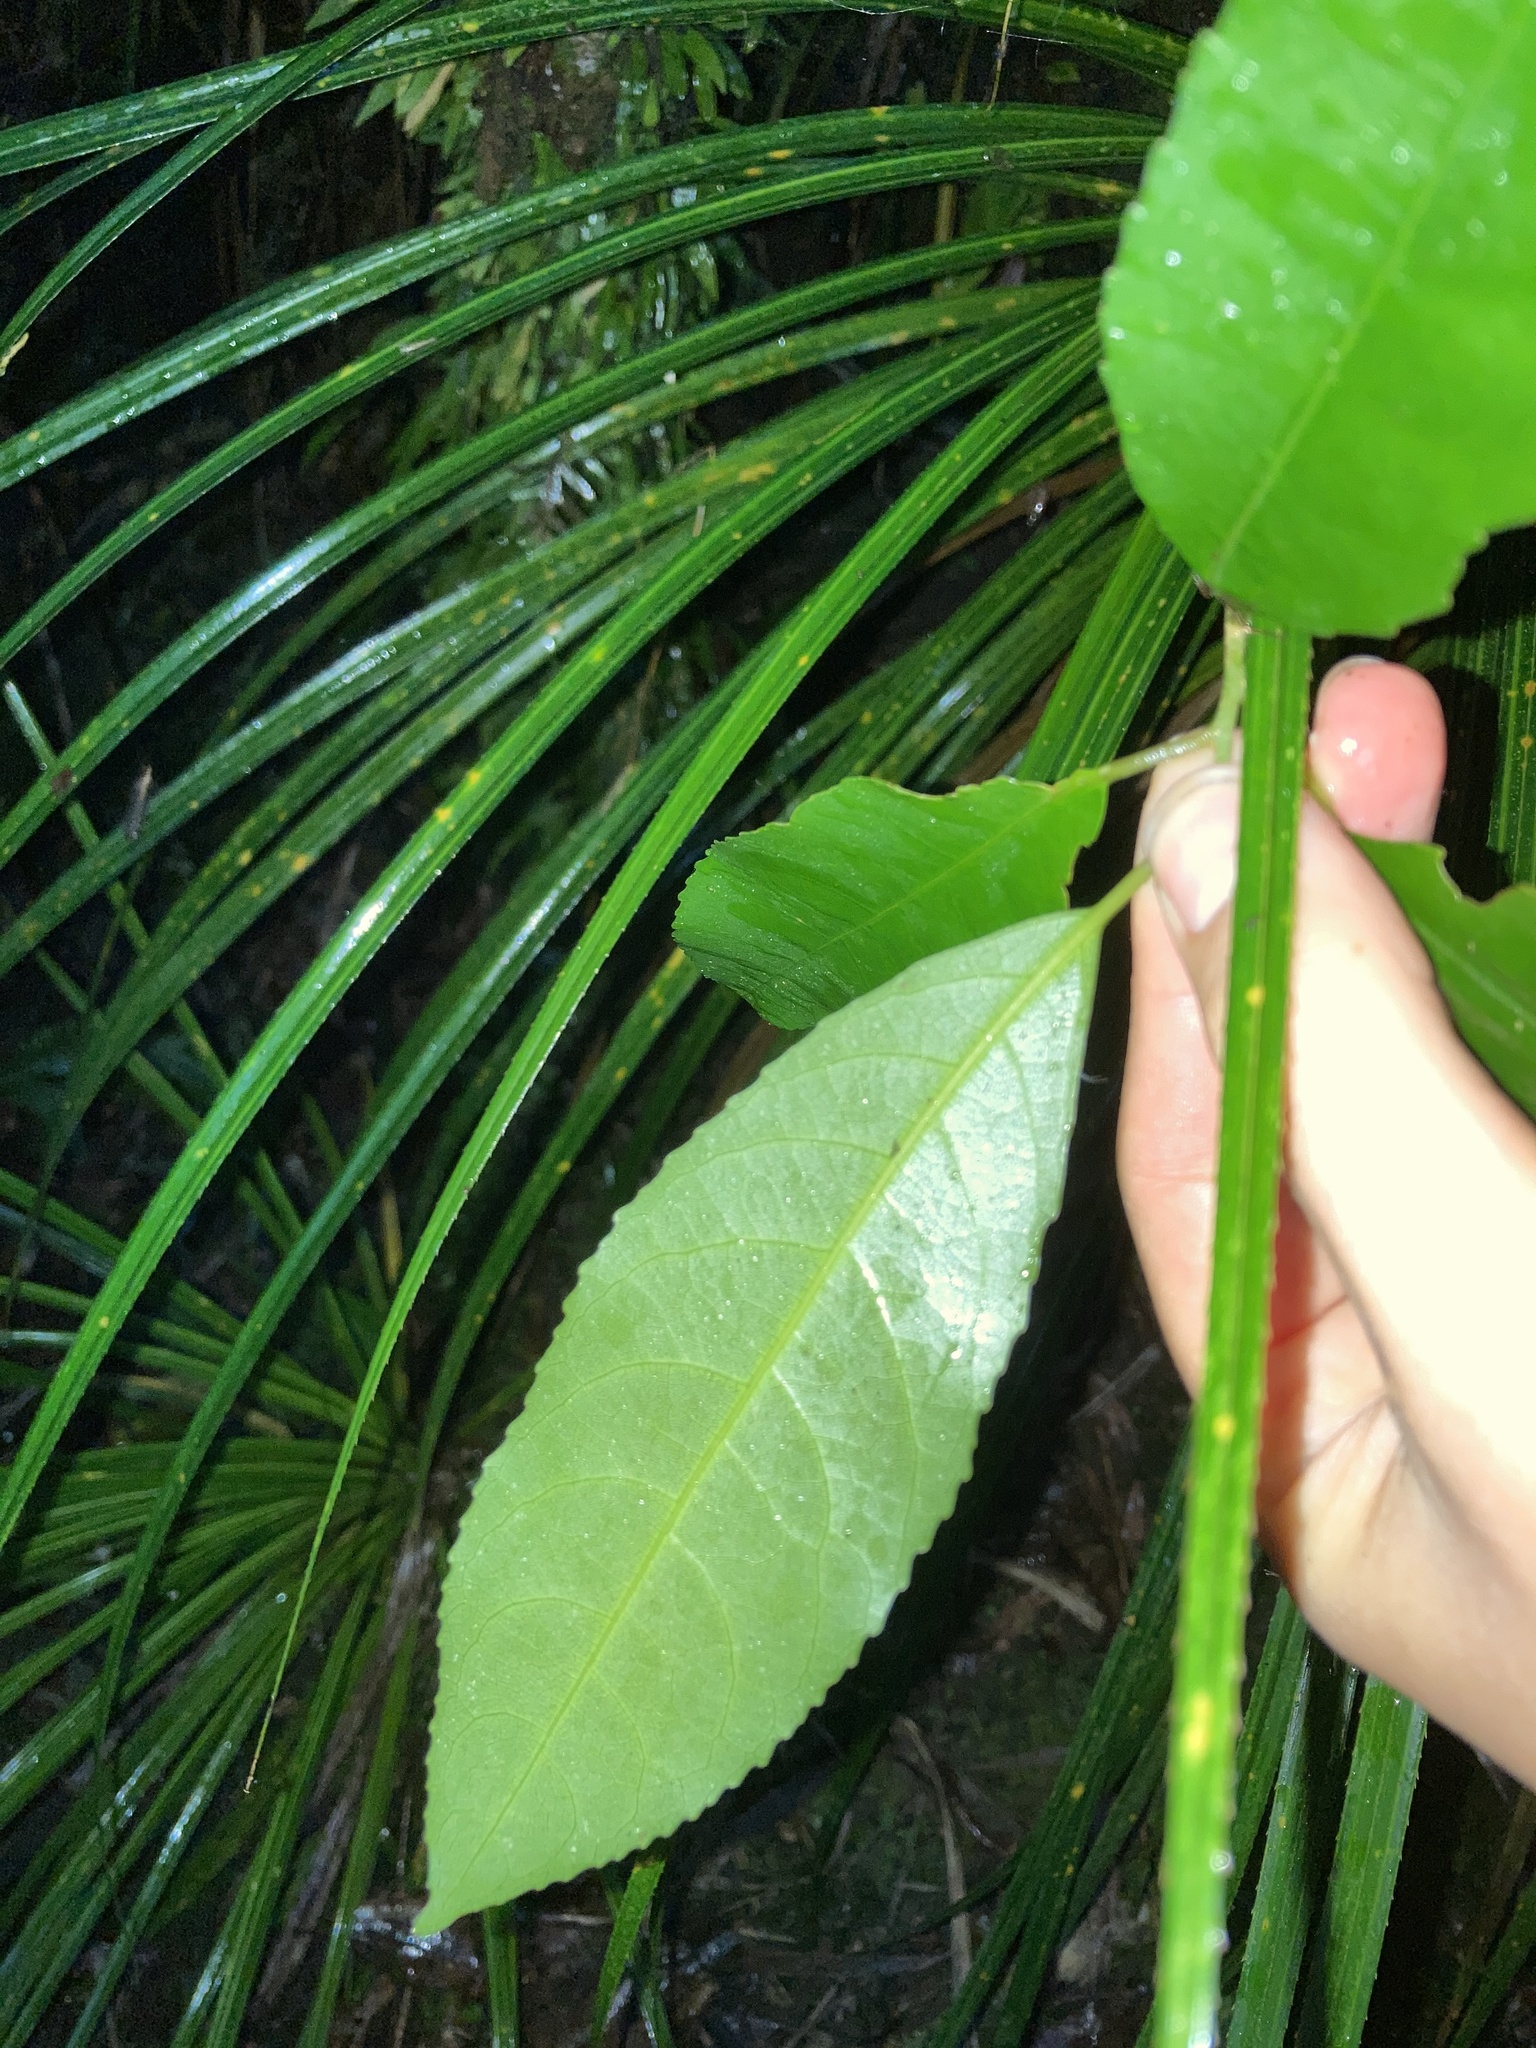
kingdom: Plantae
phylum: Tracheophyta
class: Magnoliopsida
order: Malpighiales
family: Violaceae
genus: Melicytus
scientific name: Melicytus ramiflorus
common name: Mahoe
